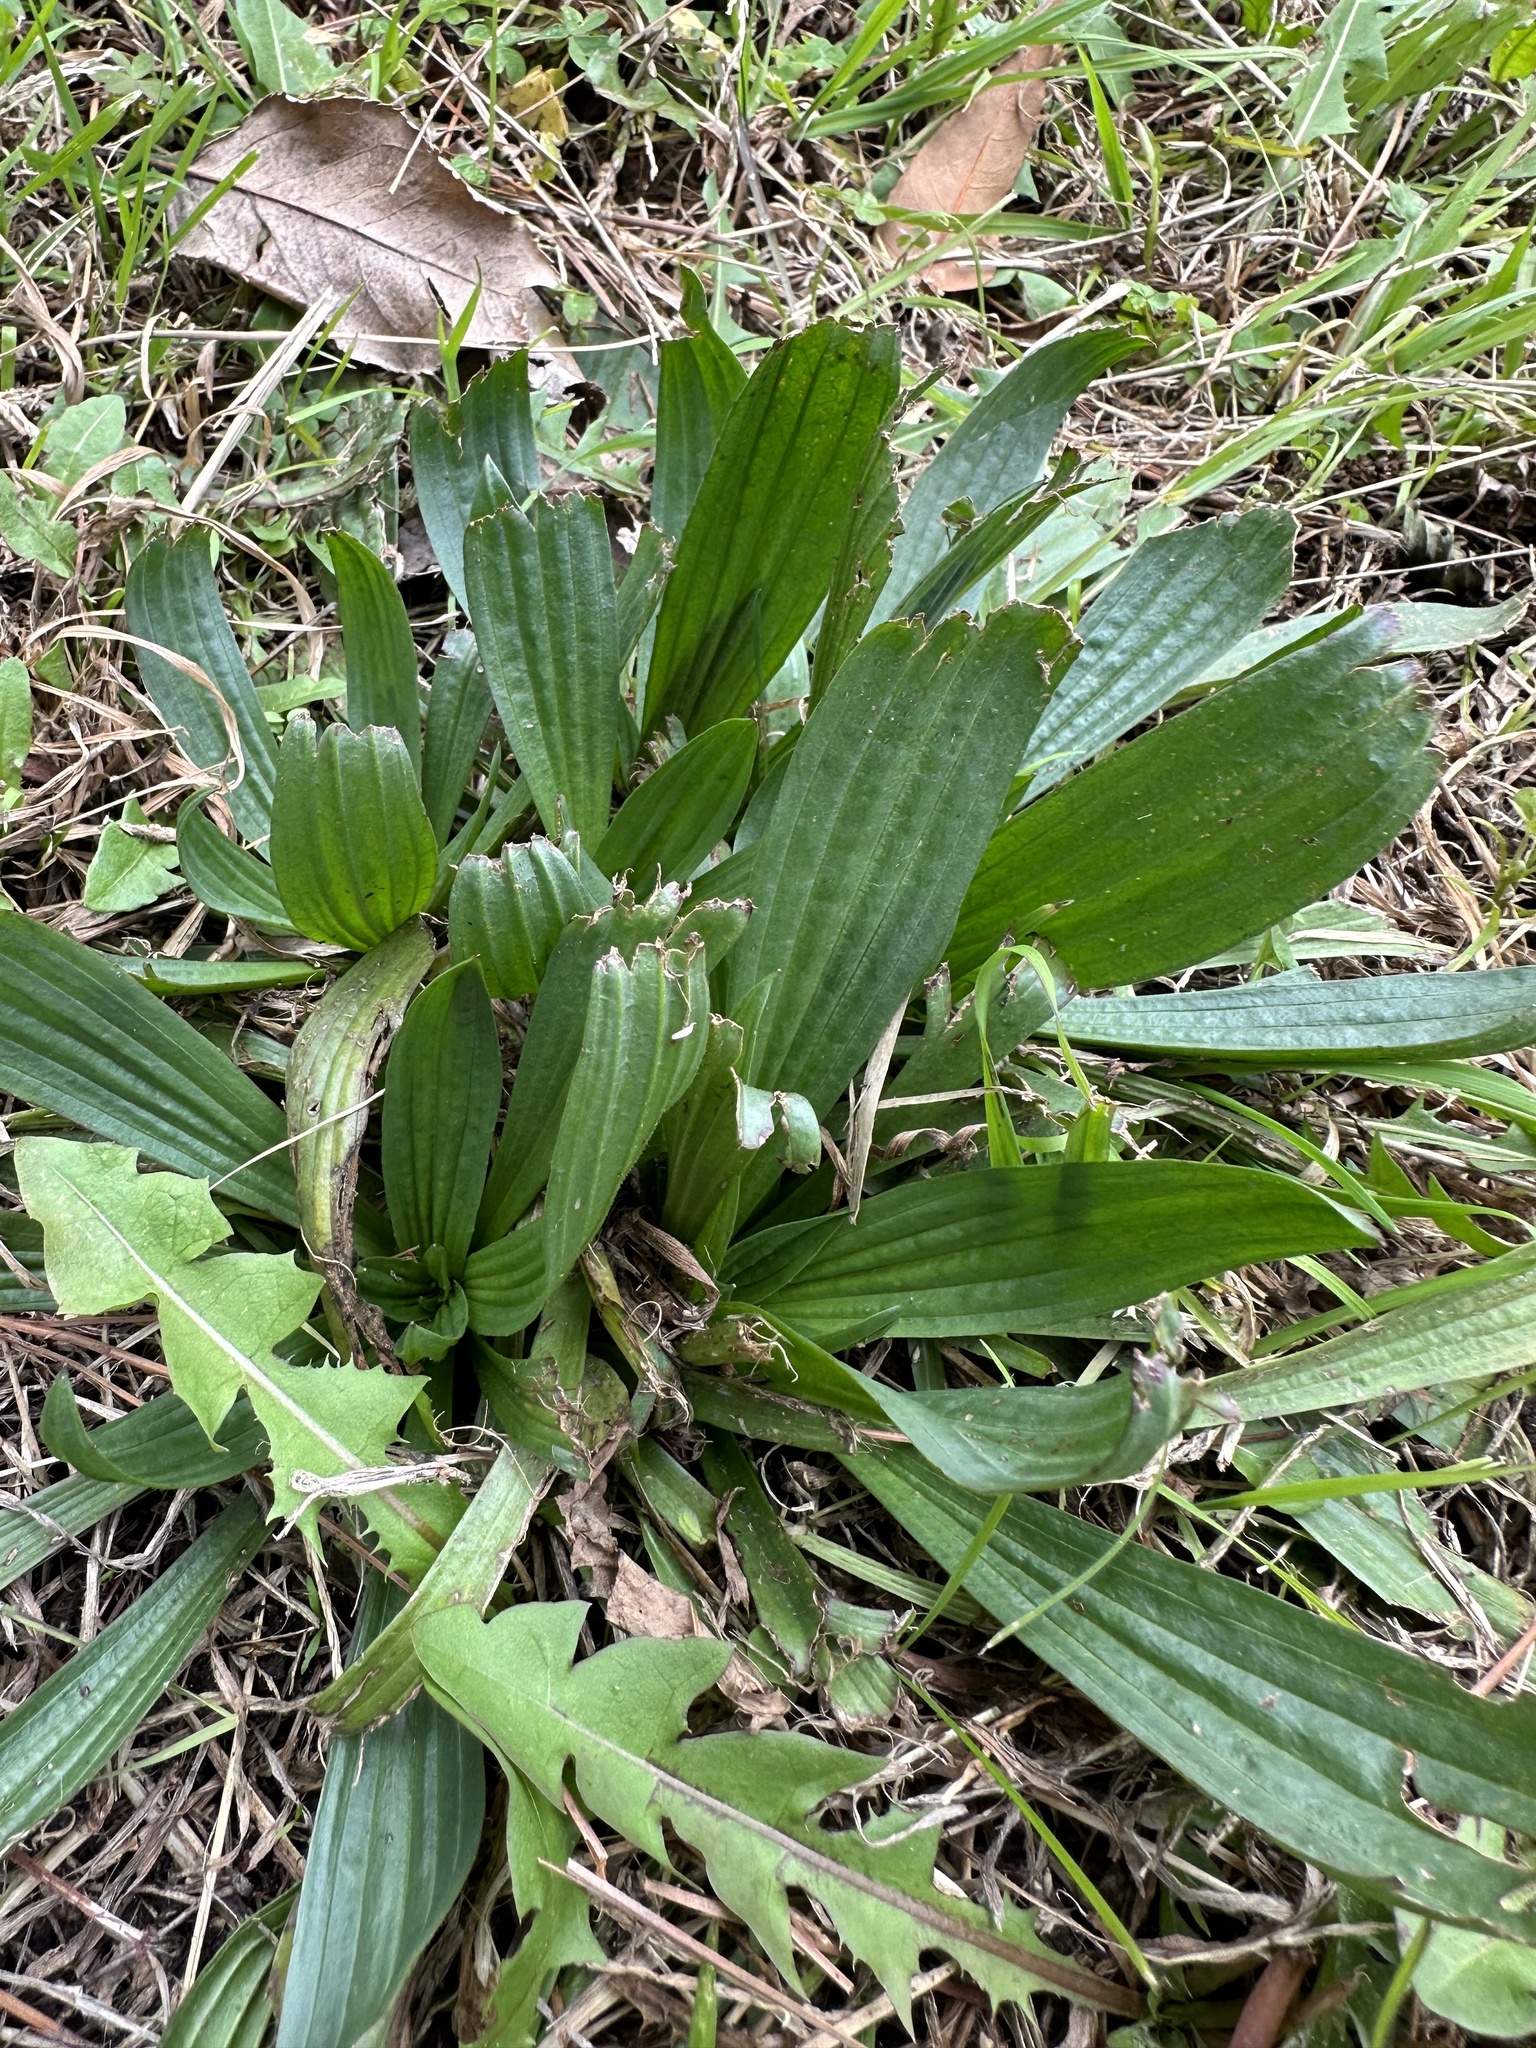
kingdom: Plantae
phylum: Tracheophyta
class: Magnoliopsida
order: Lamiales
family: Plantaginaceae
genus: Plantago
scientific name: Plantago lanceolata
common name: Ribwort plantain
